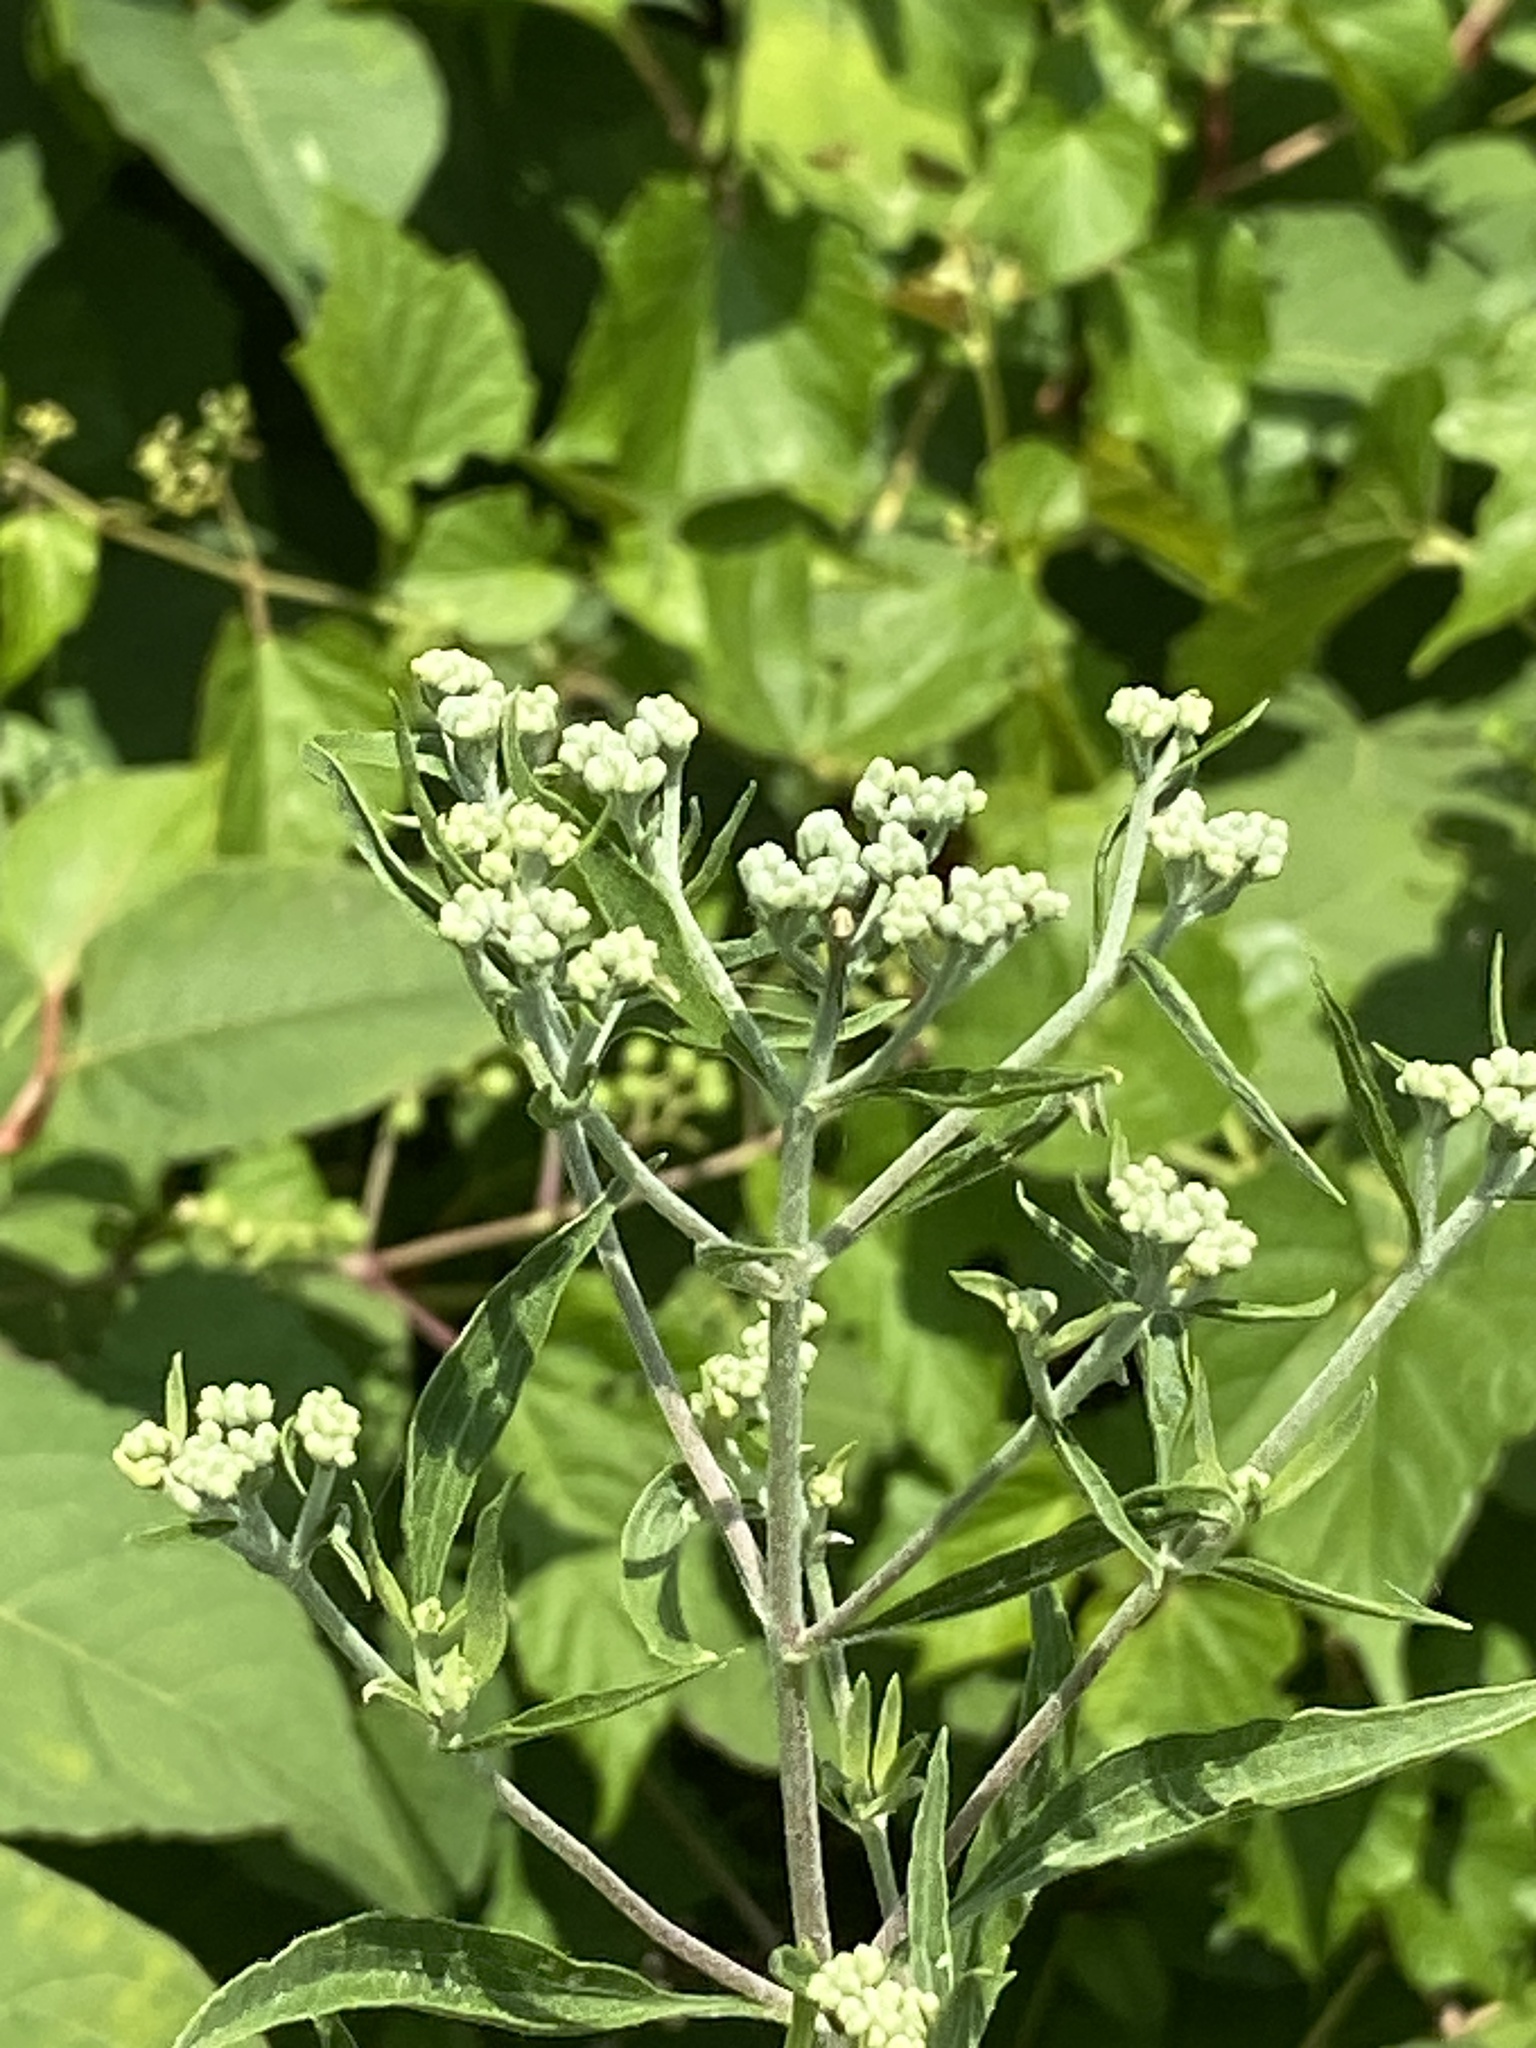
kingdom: Plantae
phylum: Tracheophyta
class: Magnoliopsida
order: Asterales
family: Asteraceae
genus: Eupatorium
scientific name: Eupatorium serotinum
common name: Late boneset
